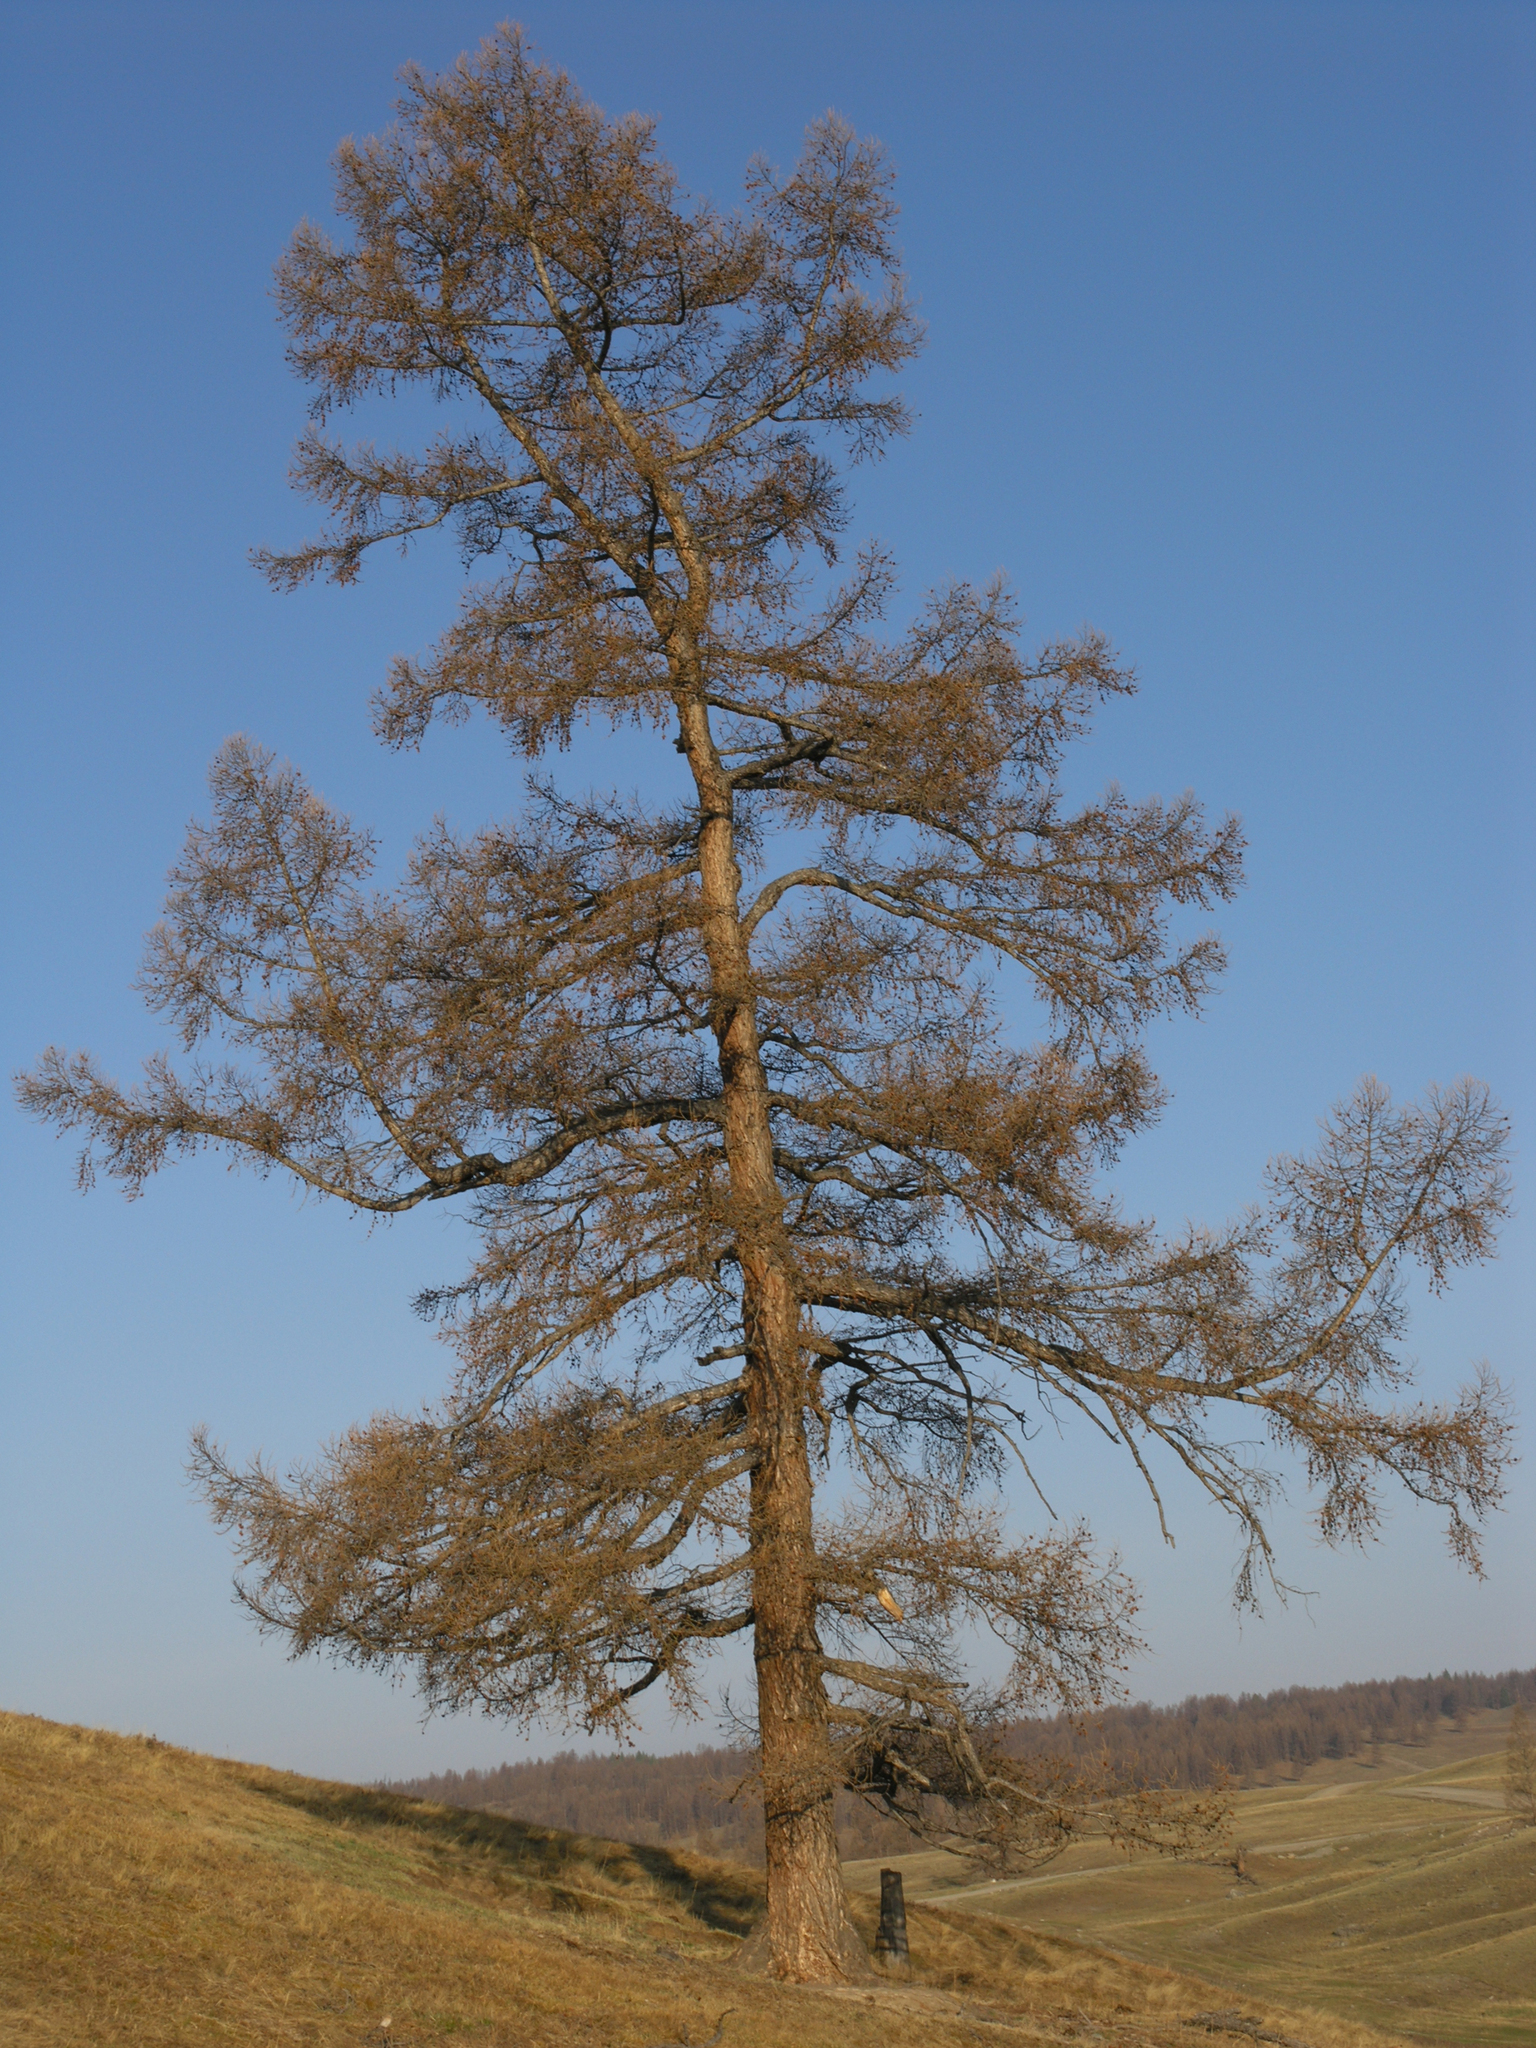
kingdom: Plantae
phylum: Tracheophyta
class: Pinopsida
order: Pinales
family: Pinaceae
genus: Larix
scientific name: Larix sibirica
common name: Siberian larch
